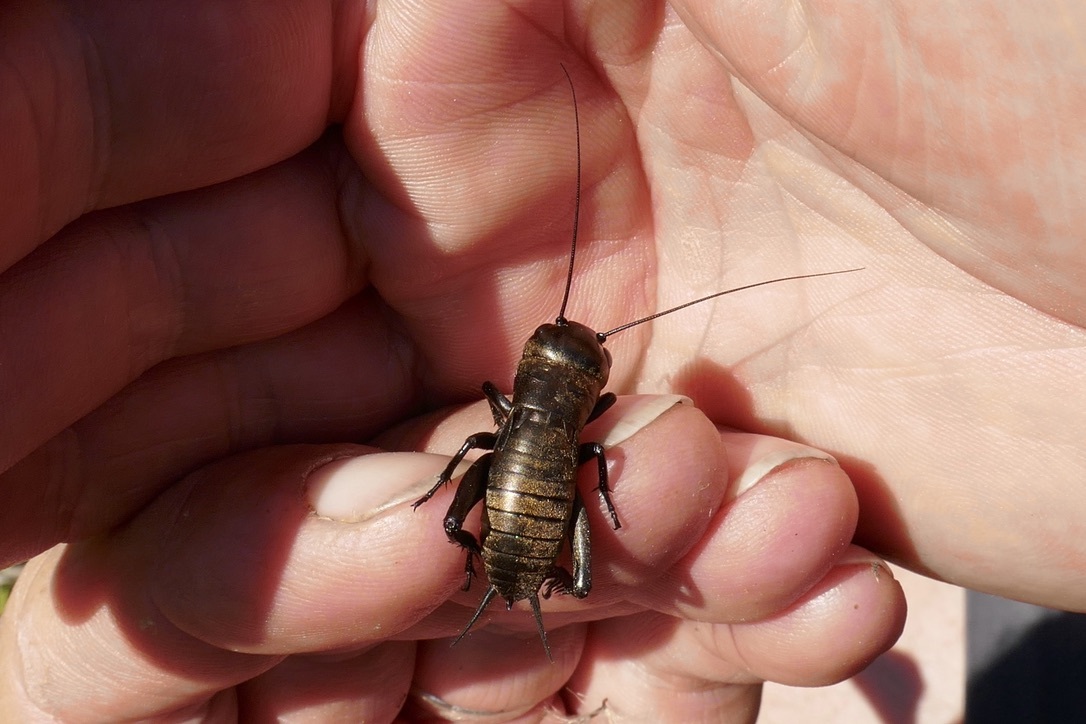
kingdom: Animalia
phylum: Arthropoda
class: Insecta
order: Orthoptera
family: Gryllidae
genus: Gryllus
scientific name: Gryllus campestris
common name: Field cricket
